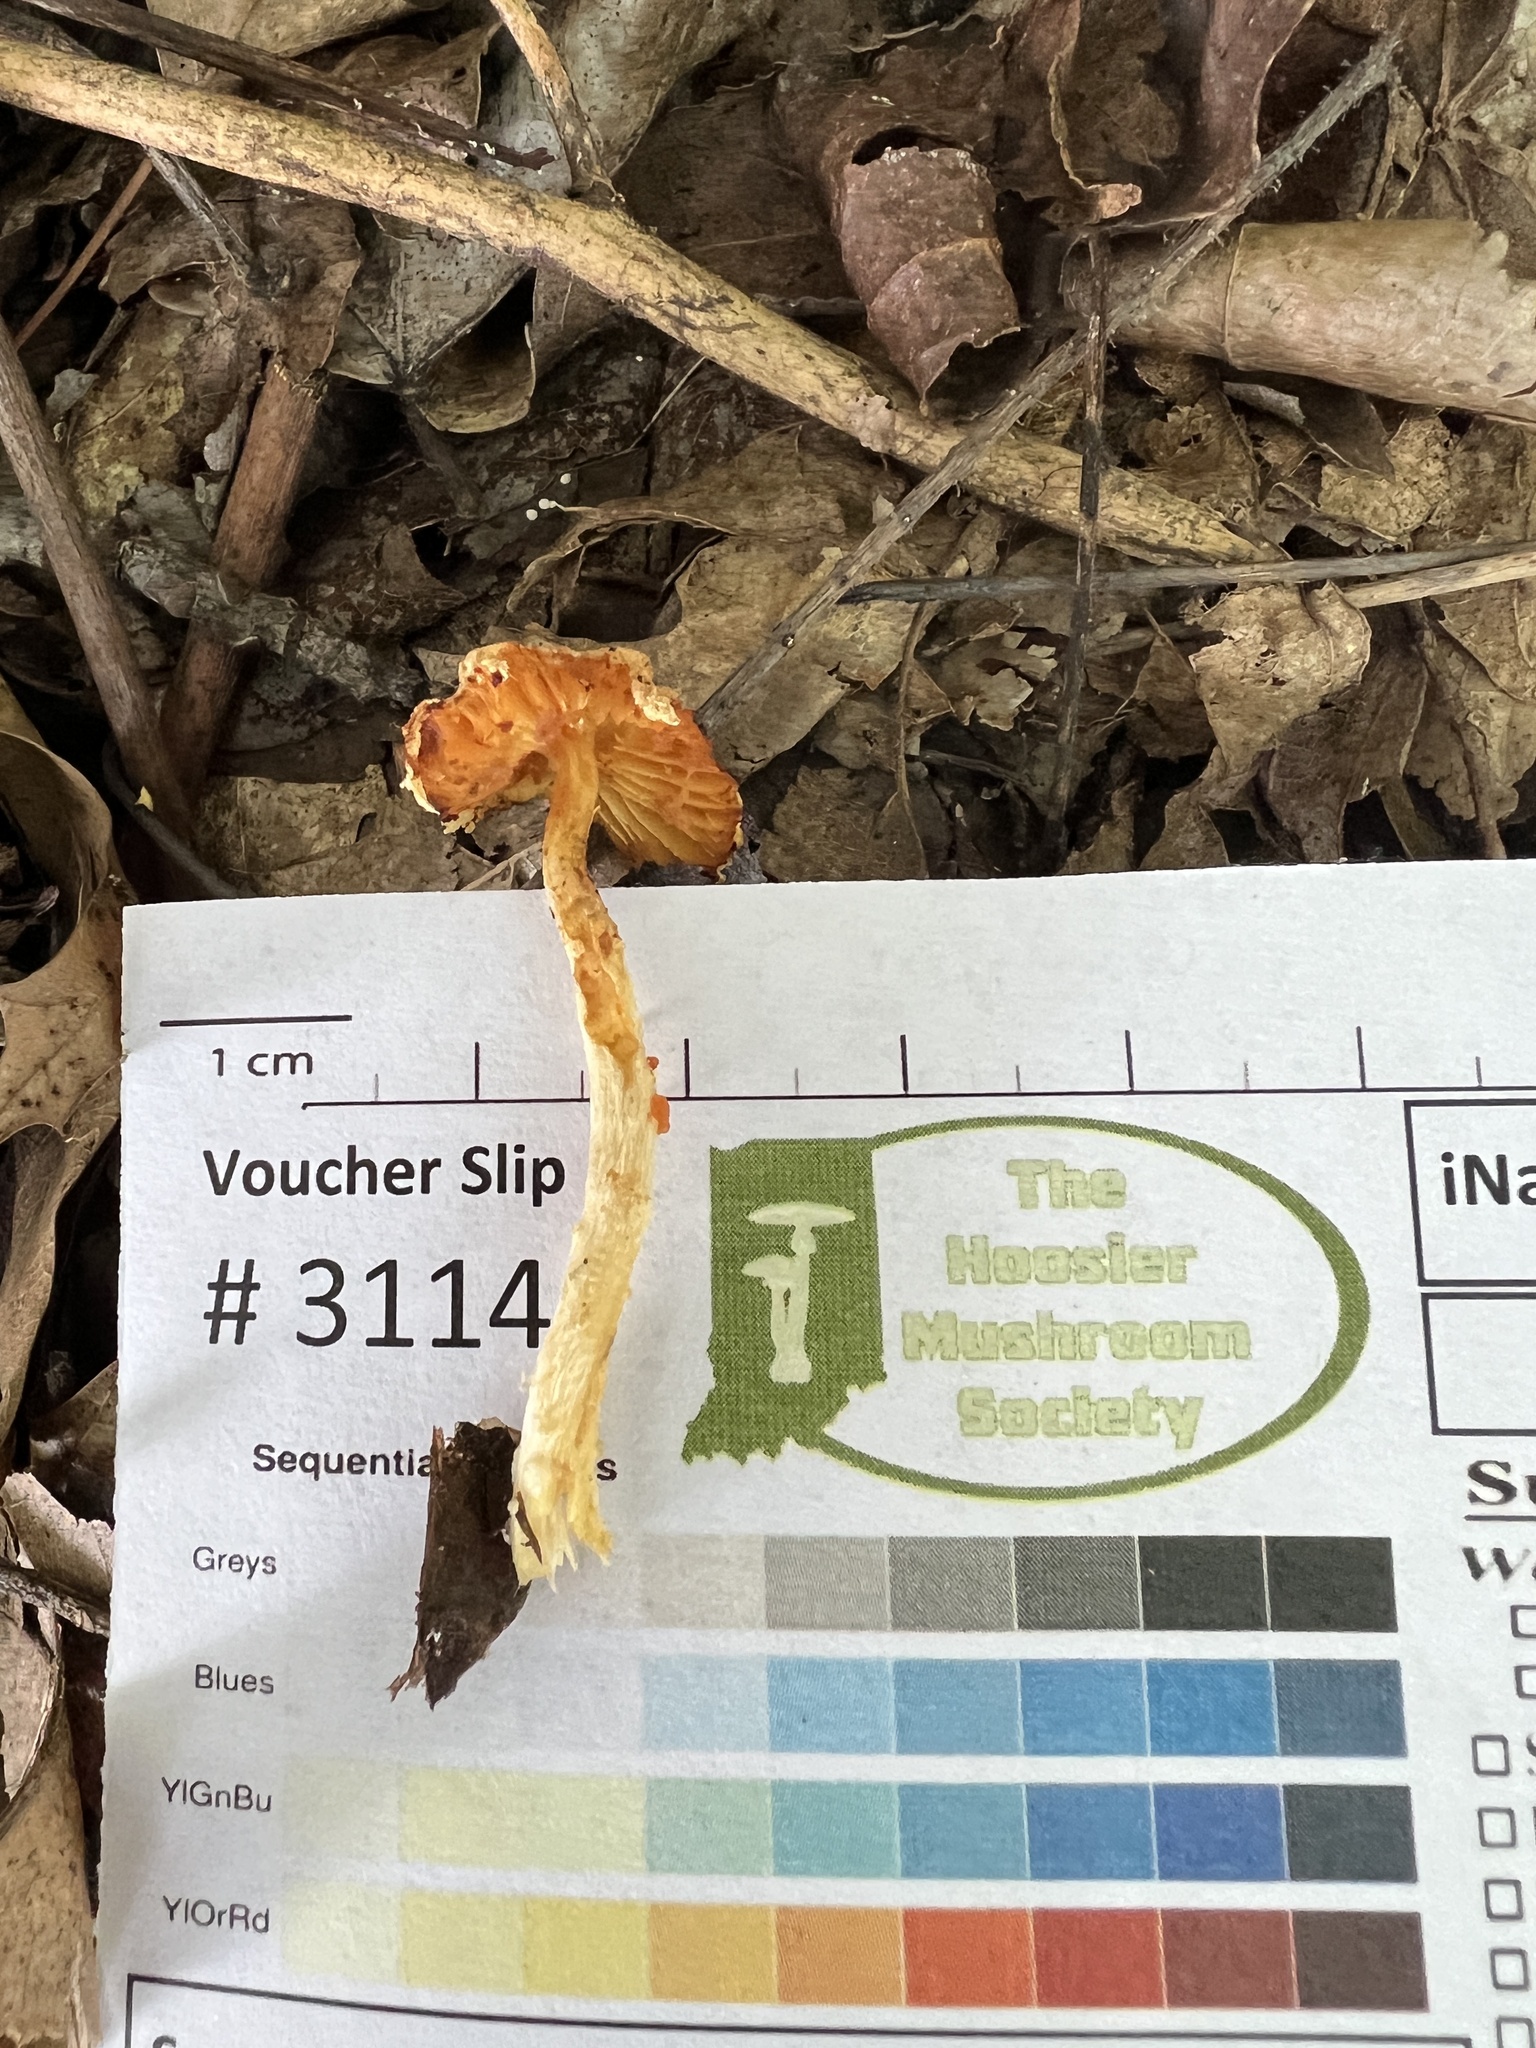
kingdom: Fungi
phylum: Basidiomycota
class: Agaricomycetes
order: Agaricales
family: Agaricaceae
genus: Lepiota
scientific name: Lepiota maculans
